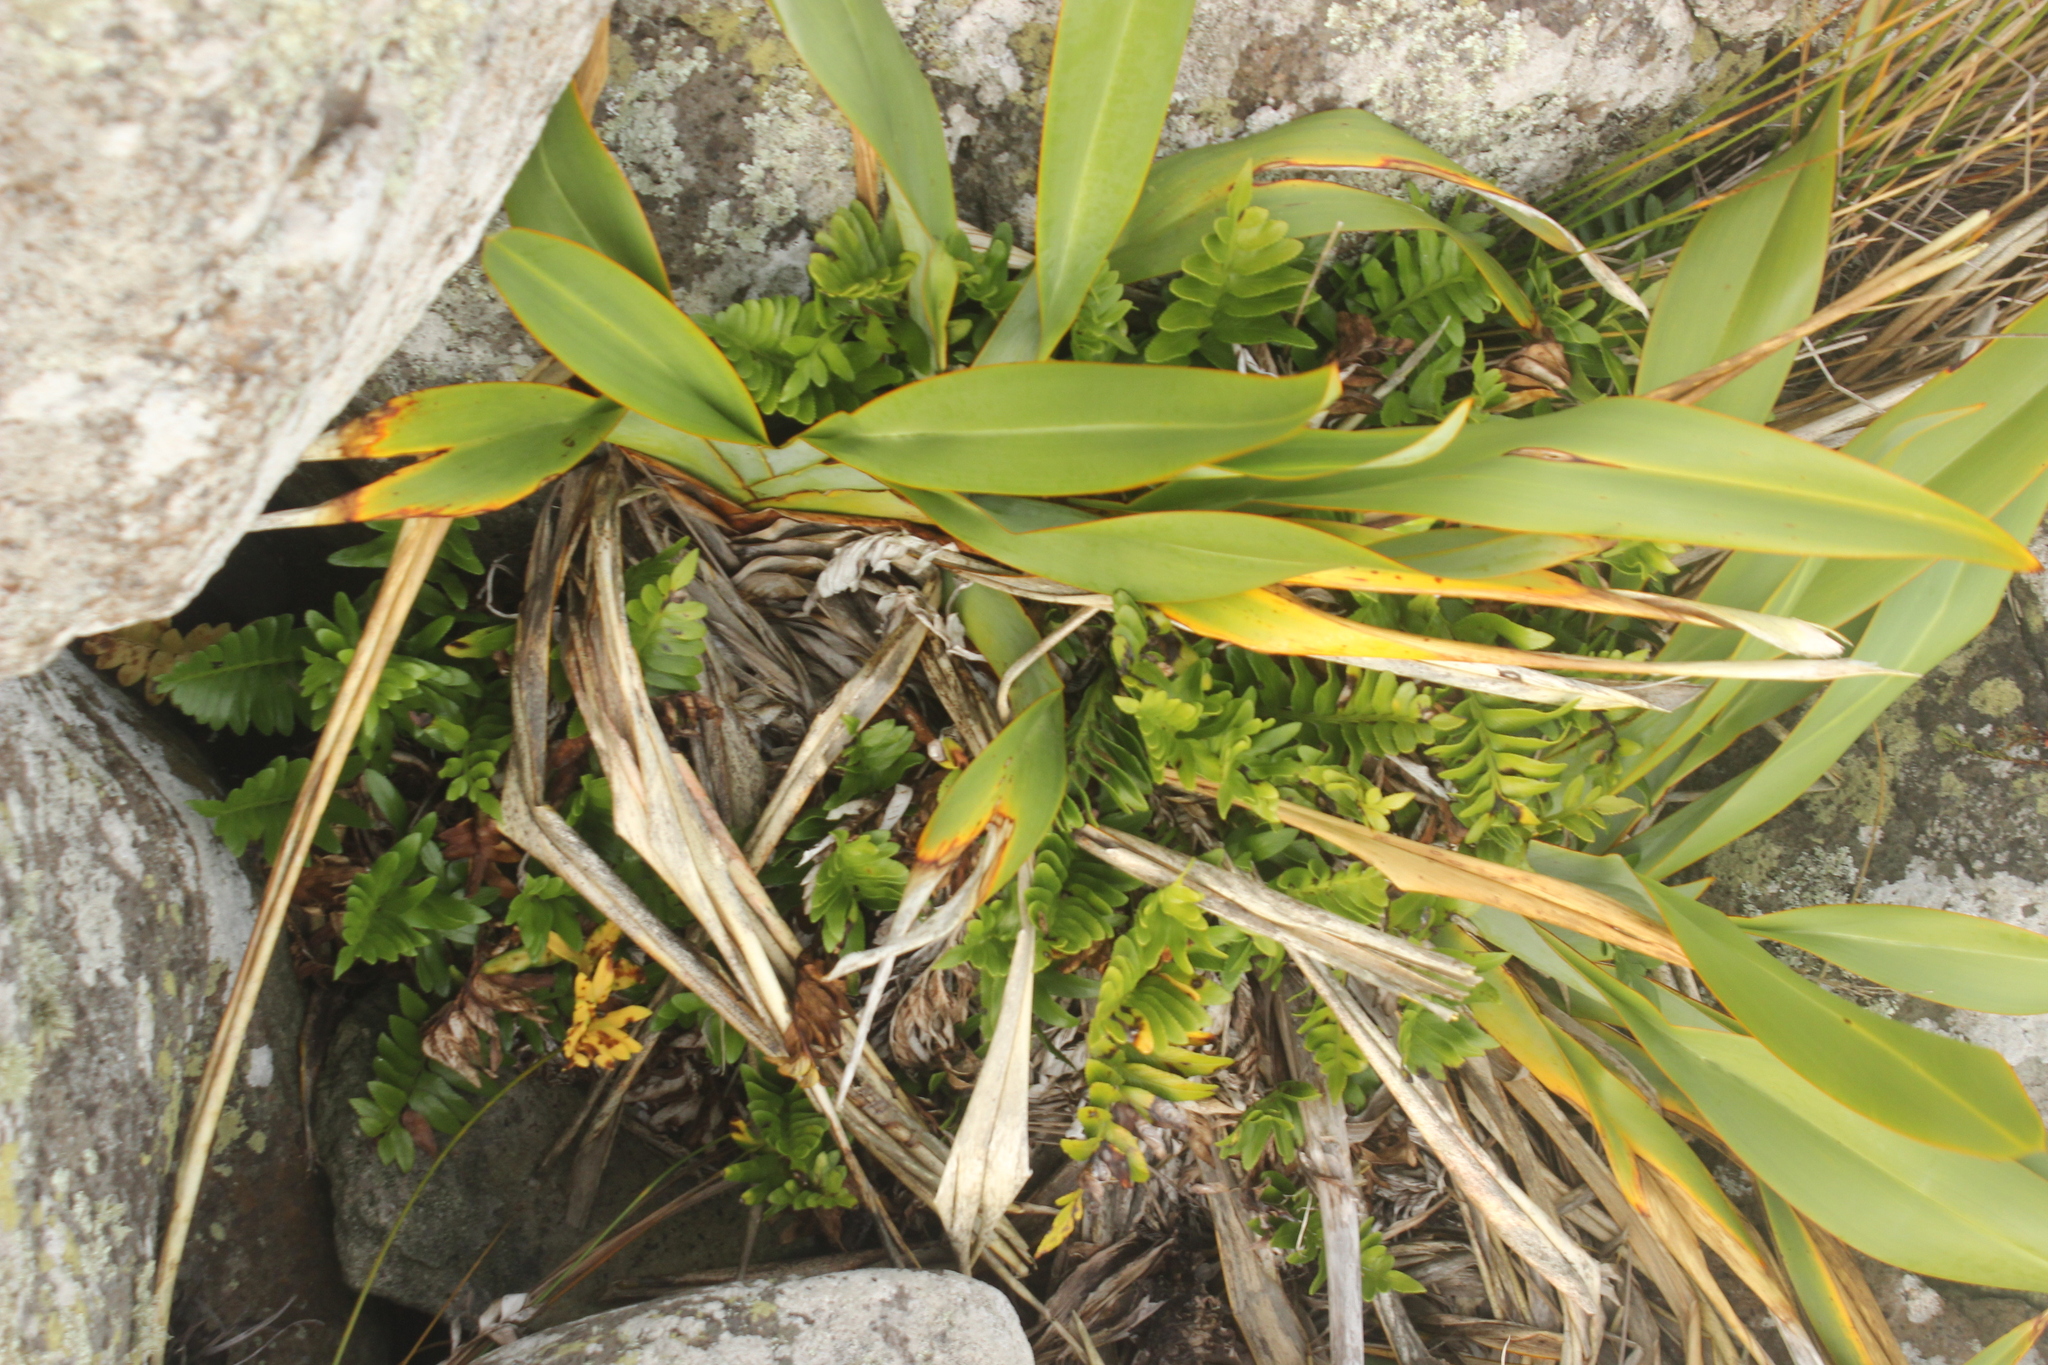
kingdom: Plantae
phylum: Tracheophyta
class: Polypodiopsida
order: Polypodiales
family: Aspleniaceae
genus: Asplenium
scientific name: Asplenium obtusatum
